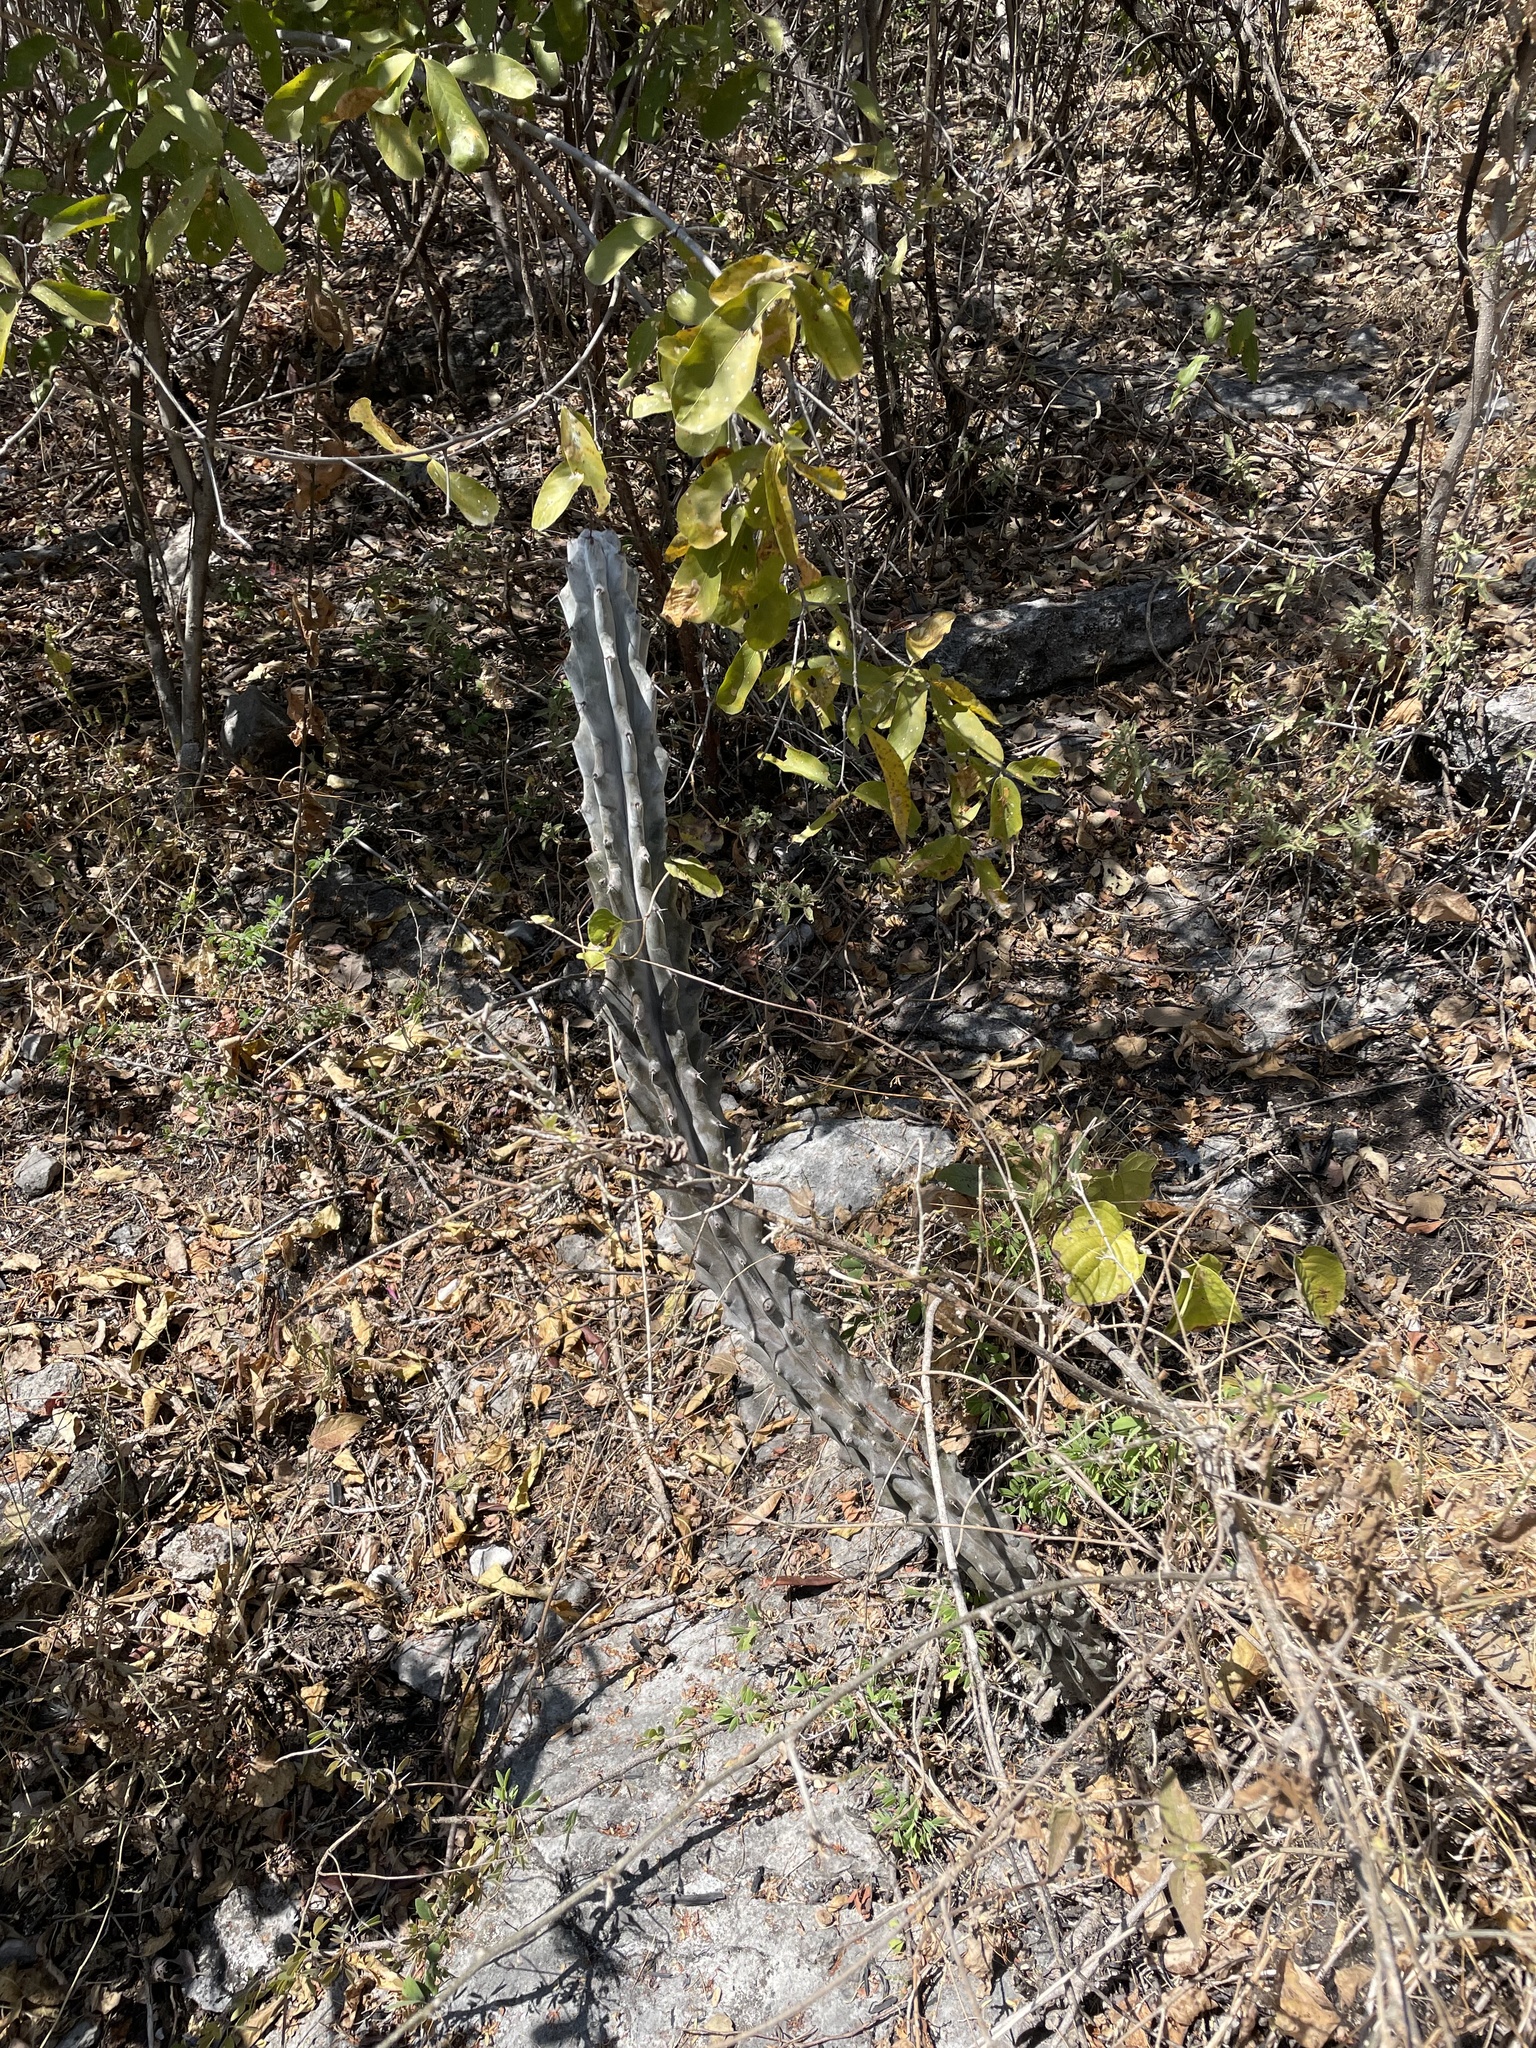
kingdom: Plantae
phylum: Tracheophyta
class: Magnoliopsida
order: Caryophyllales
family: Cactaceae
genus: Stenocereus
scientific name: Stenocereus beneckei
